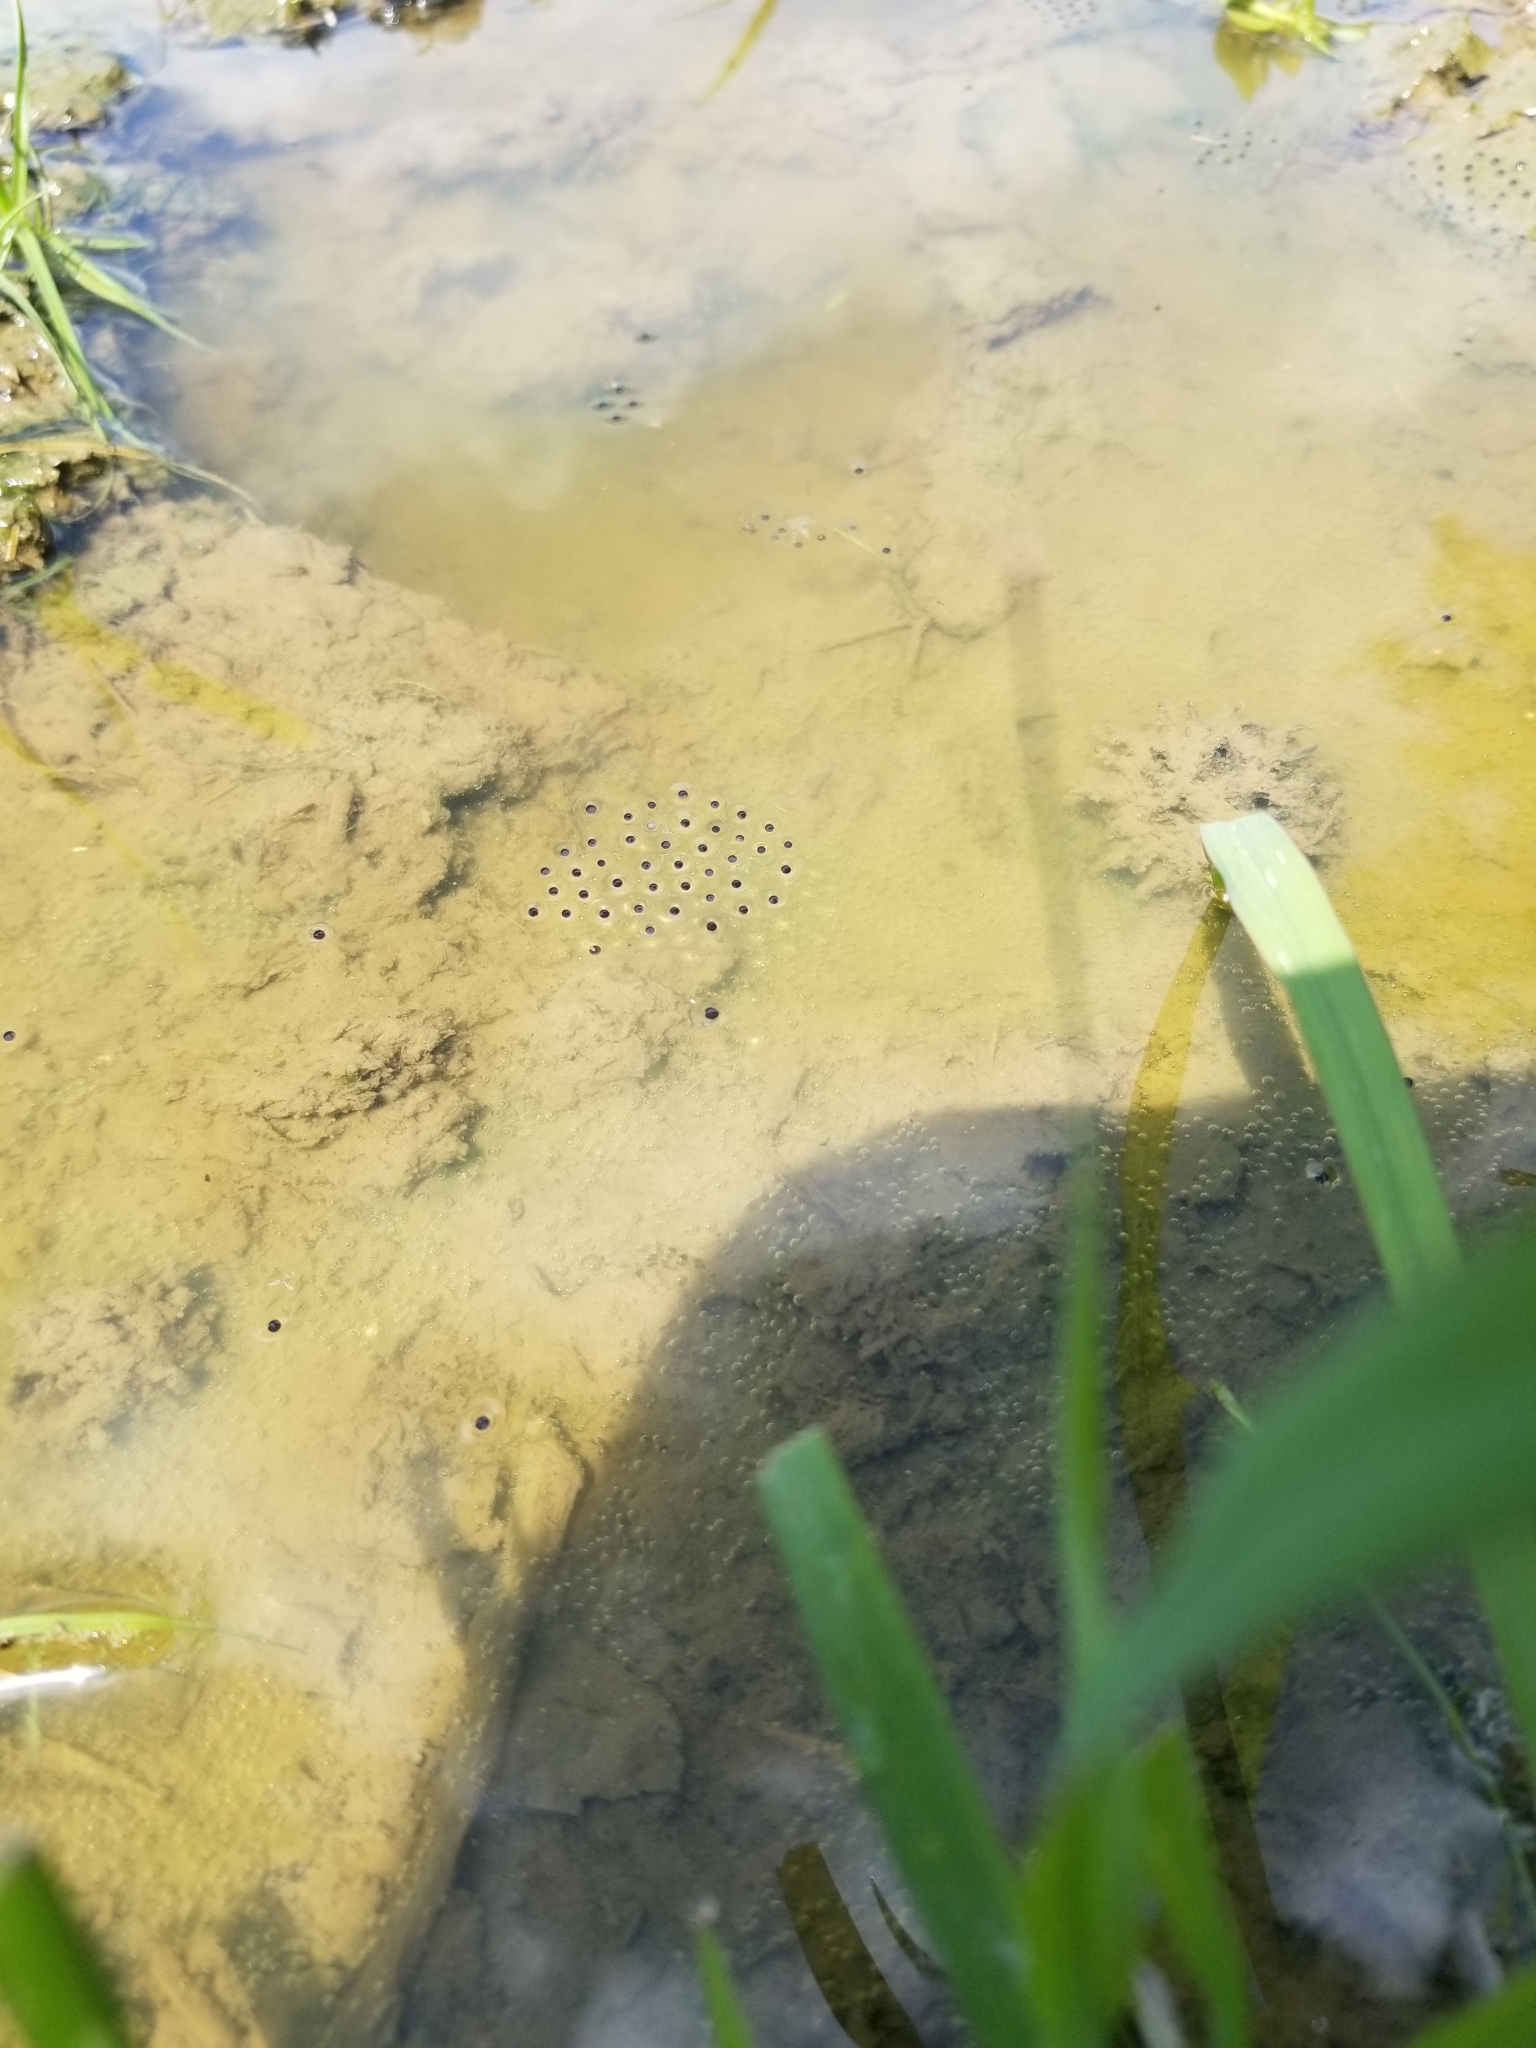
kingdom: Animalia
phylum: Chordata
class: Amphibia
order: Anura
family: Microhylidae
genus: Gastrophryne
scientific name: Gastrophryne carolinensis
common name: Eastern narrowmouth toad
